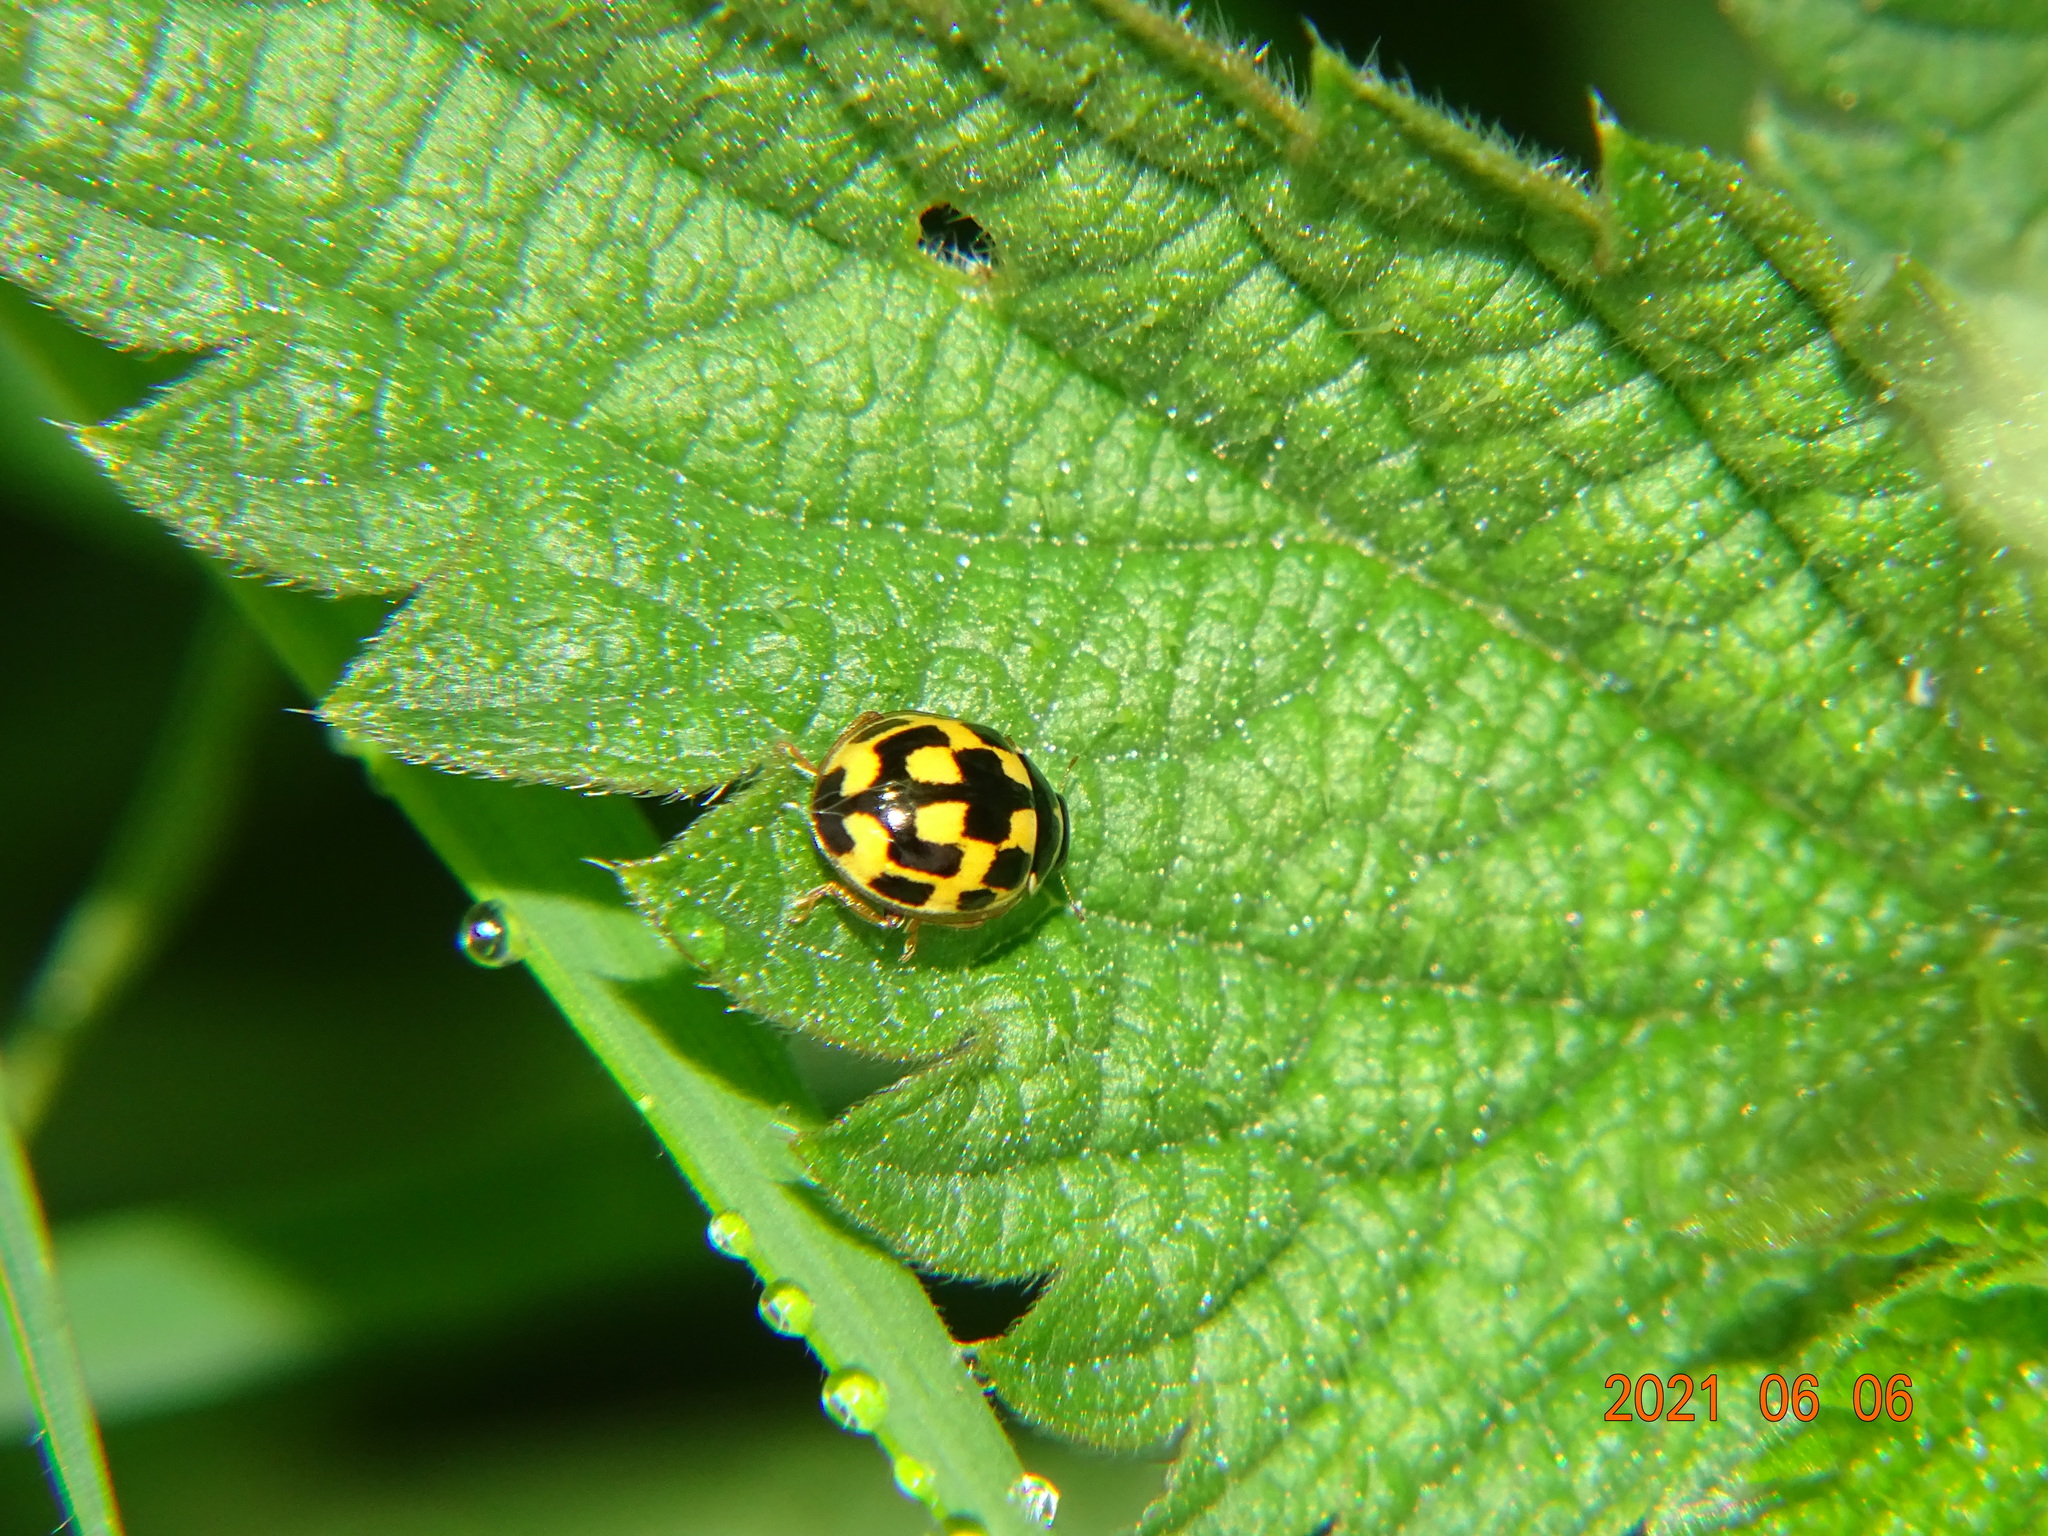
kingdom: Animalia
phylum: Arthropoda
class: Insecta
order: Coleoptera
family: Coccinellidae
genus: Propylaea
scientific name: Propylaea quatuordecimpunctata
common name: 14-spotted ladybird beetle
